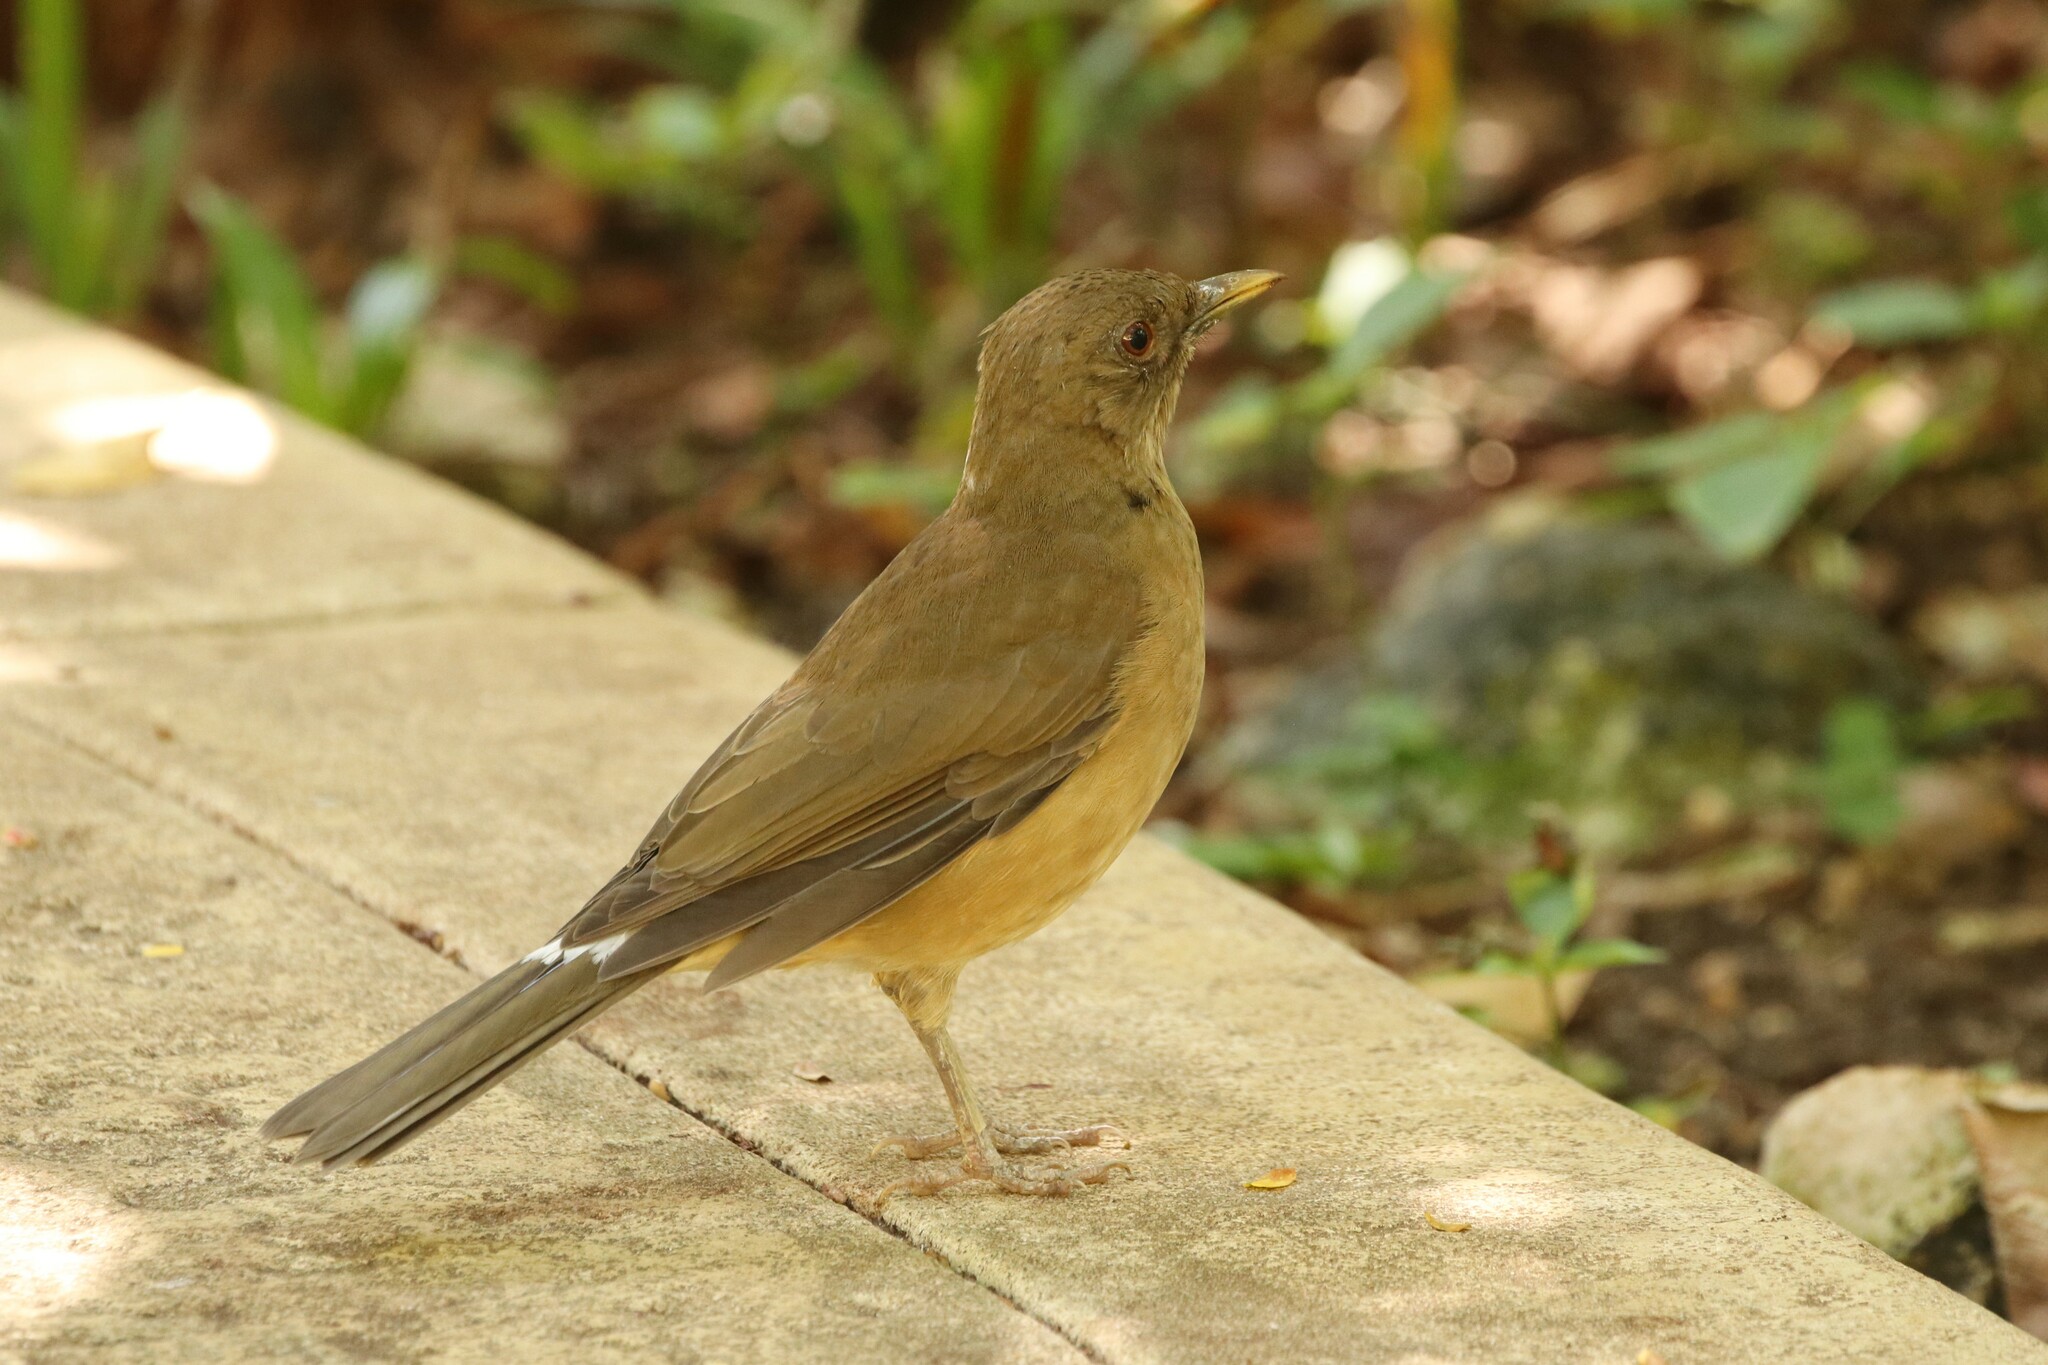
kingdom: Animalia
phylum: Chordata
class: Aves
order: Passeriformes
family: Turdidae
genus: Turdus
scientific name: Turdus grayi
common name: Clay-colored thrush
